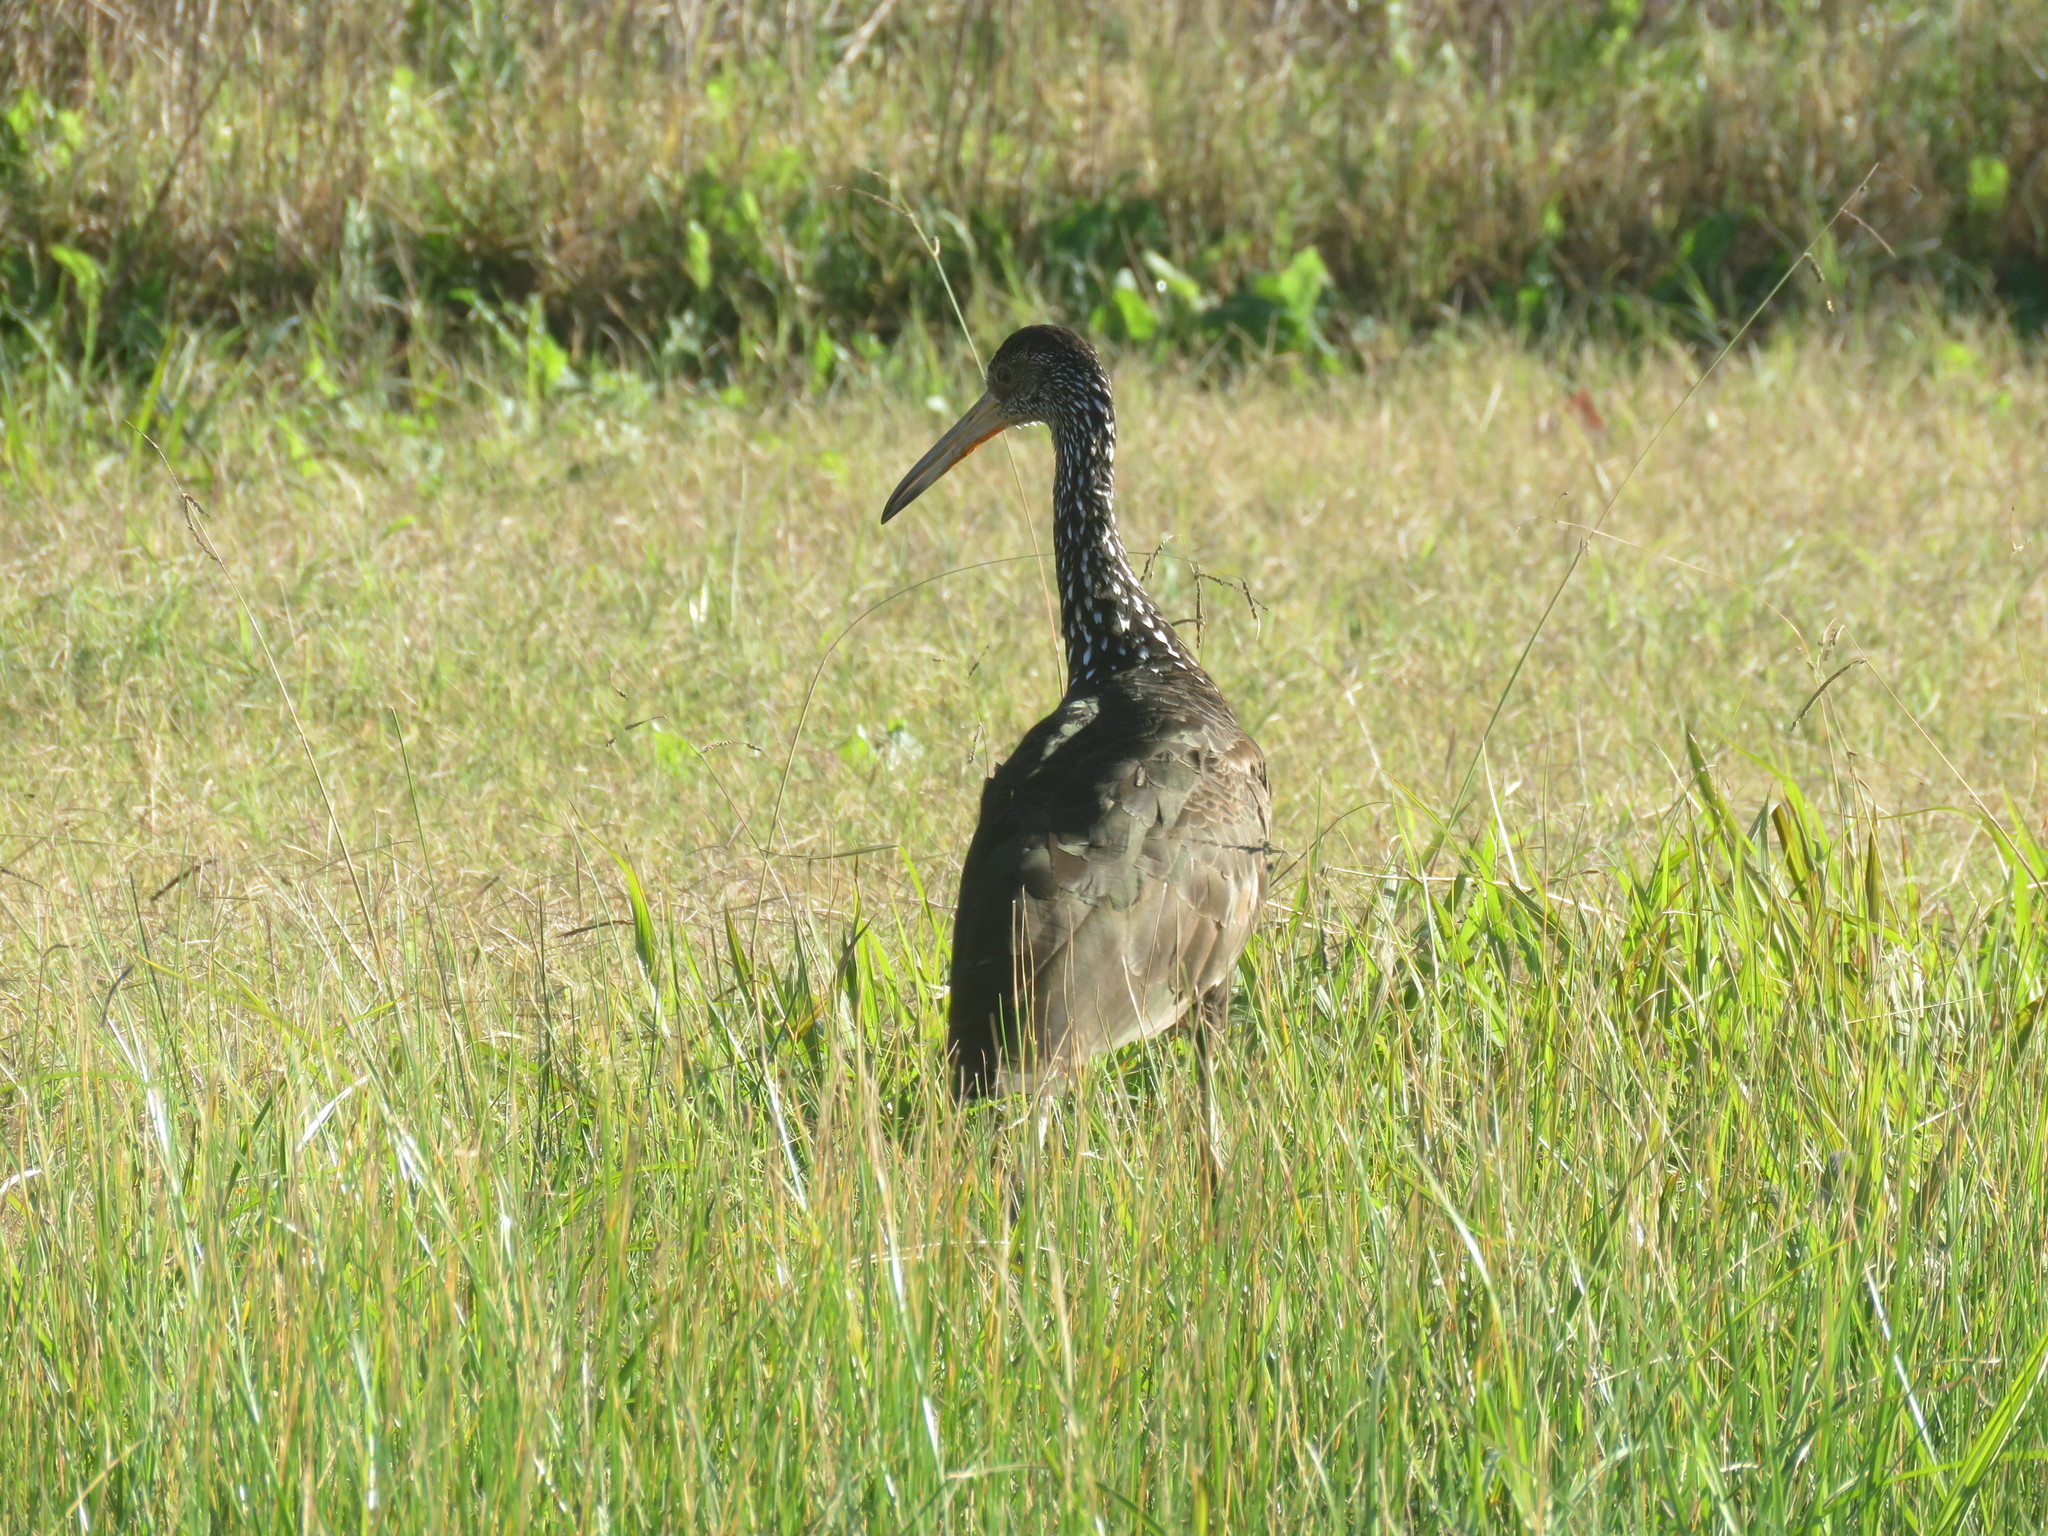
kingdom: Animalia
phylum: Chordata
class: Aves
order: Gruiformes
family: Aramidae
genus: Aramus
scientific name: Aramus guarauna
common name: Limpkin
